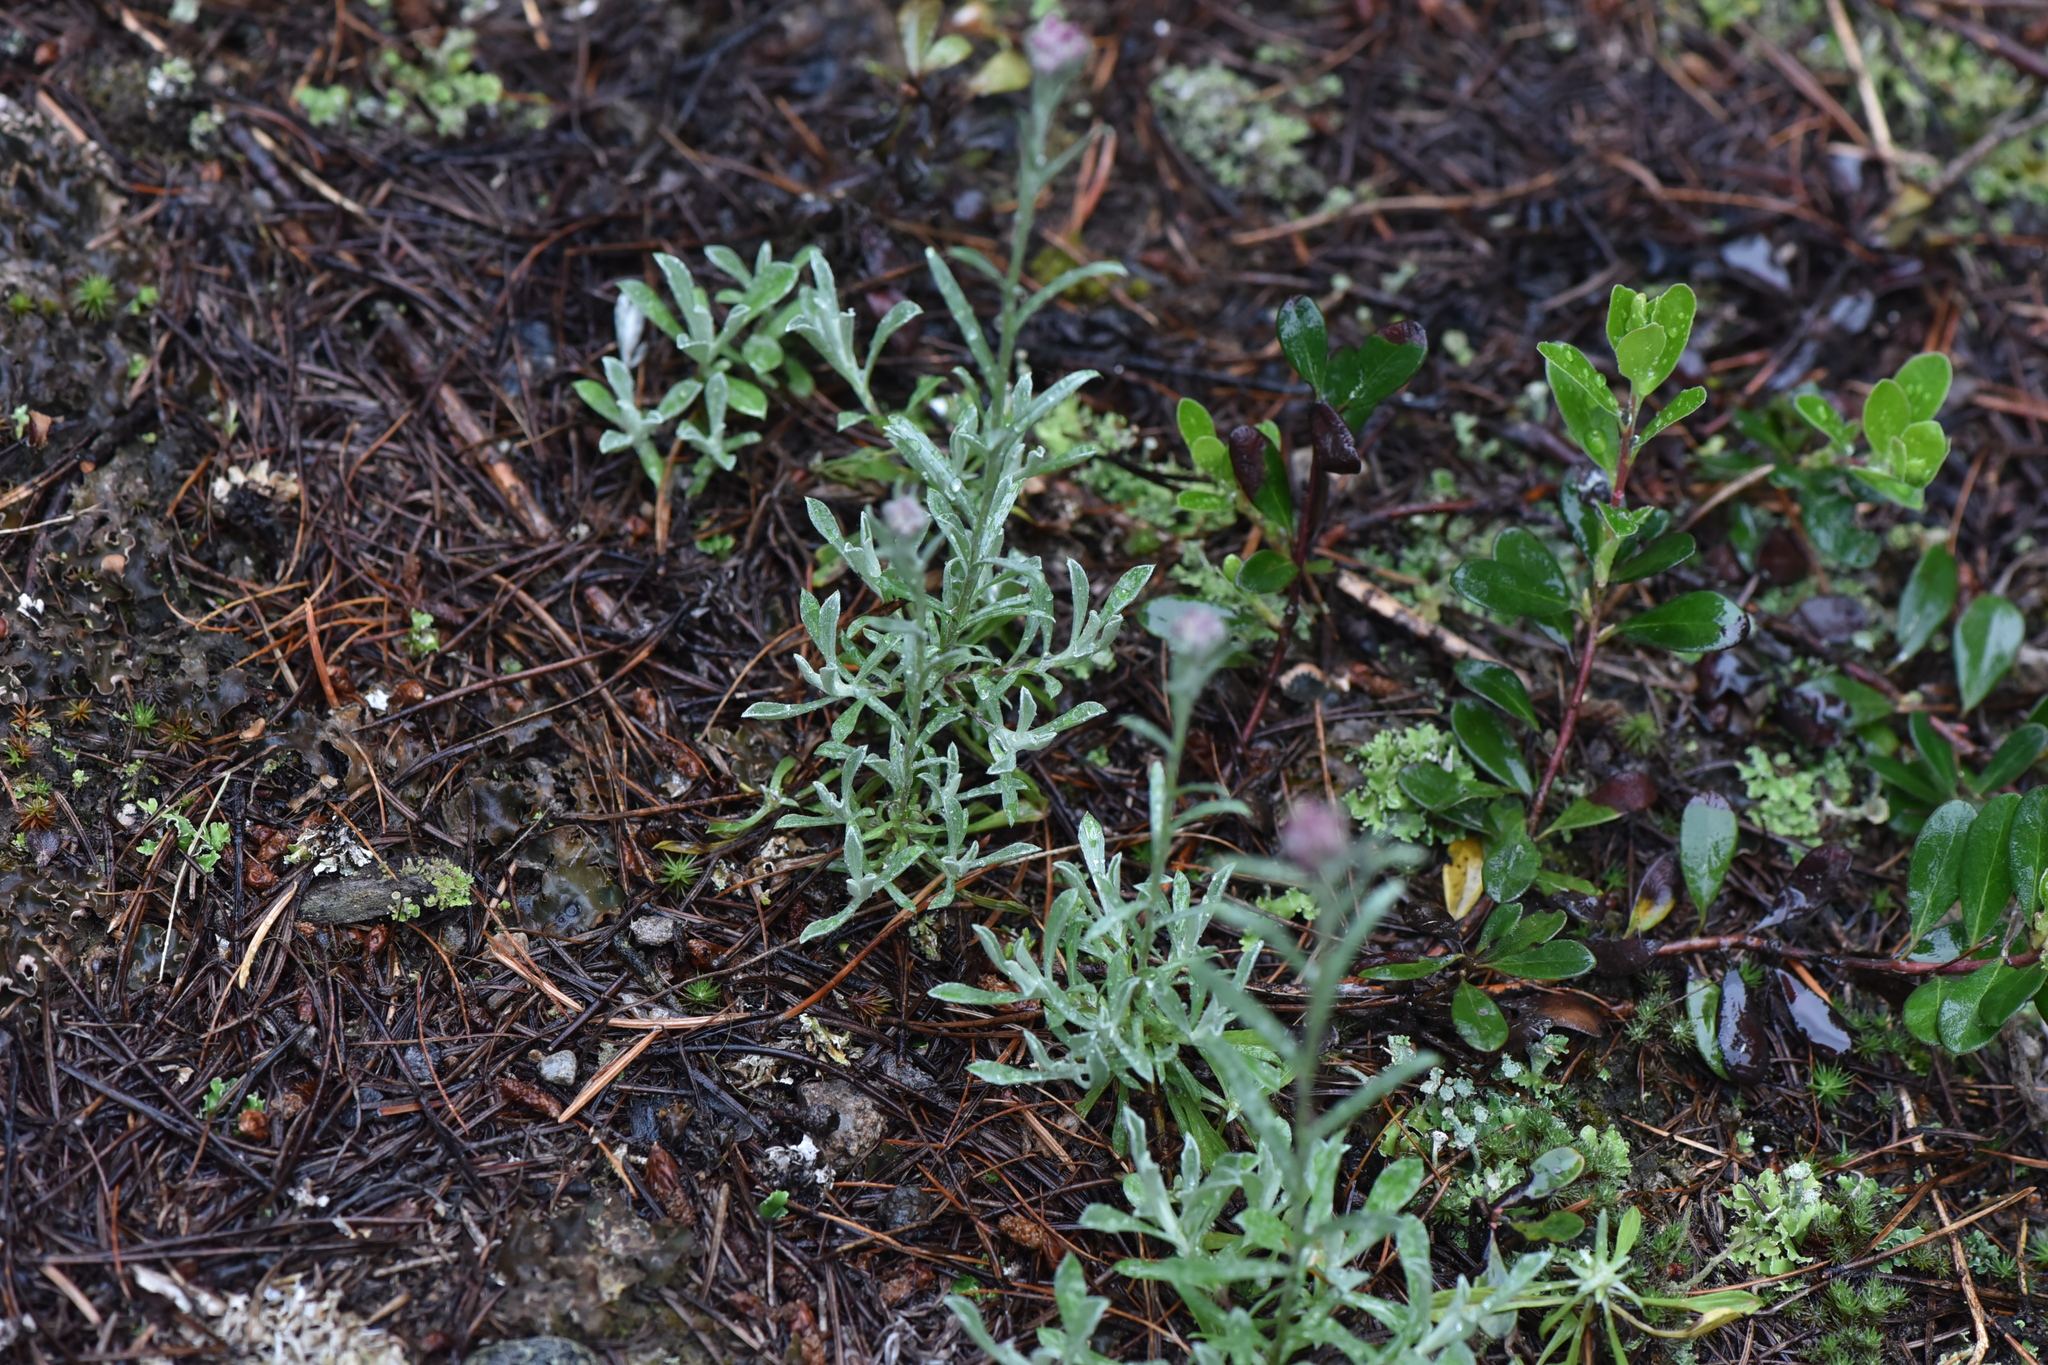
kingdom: Plantae
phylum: Tracheophyta
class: Magnoliopsida
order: Ericales
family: Ericaceae
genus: Arctostaphylos
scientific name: Arctostaphylos uva-ursi
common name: Bearberry
